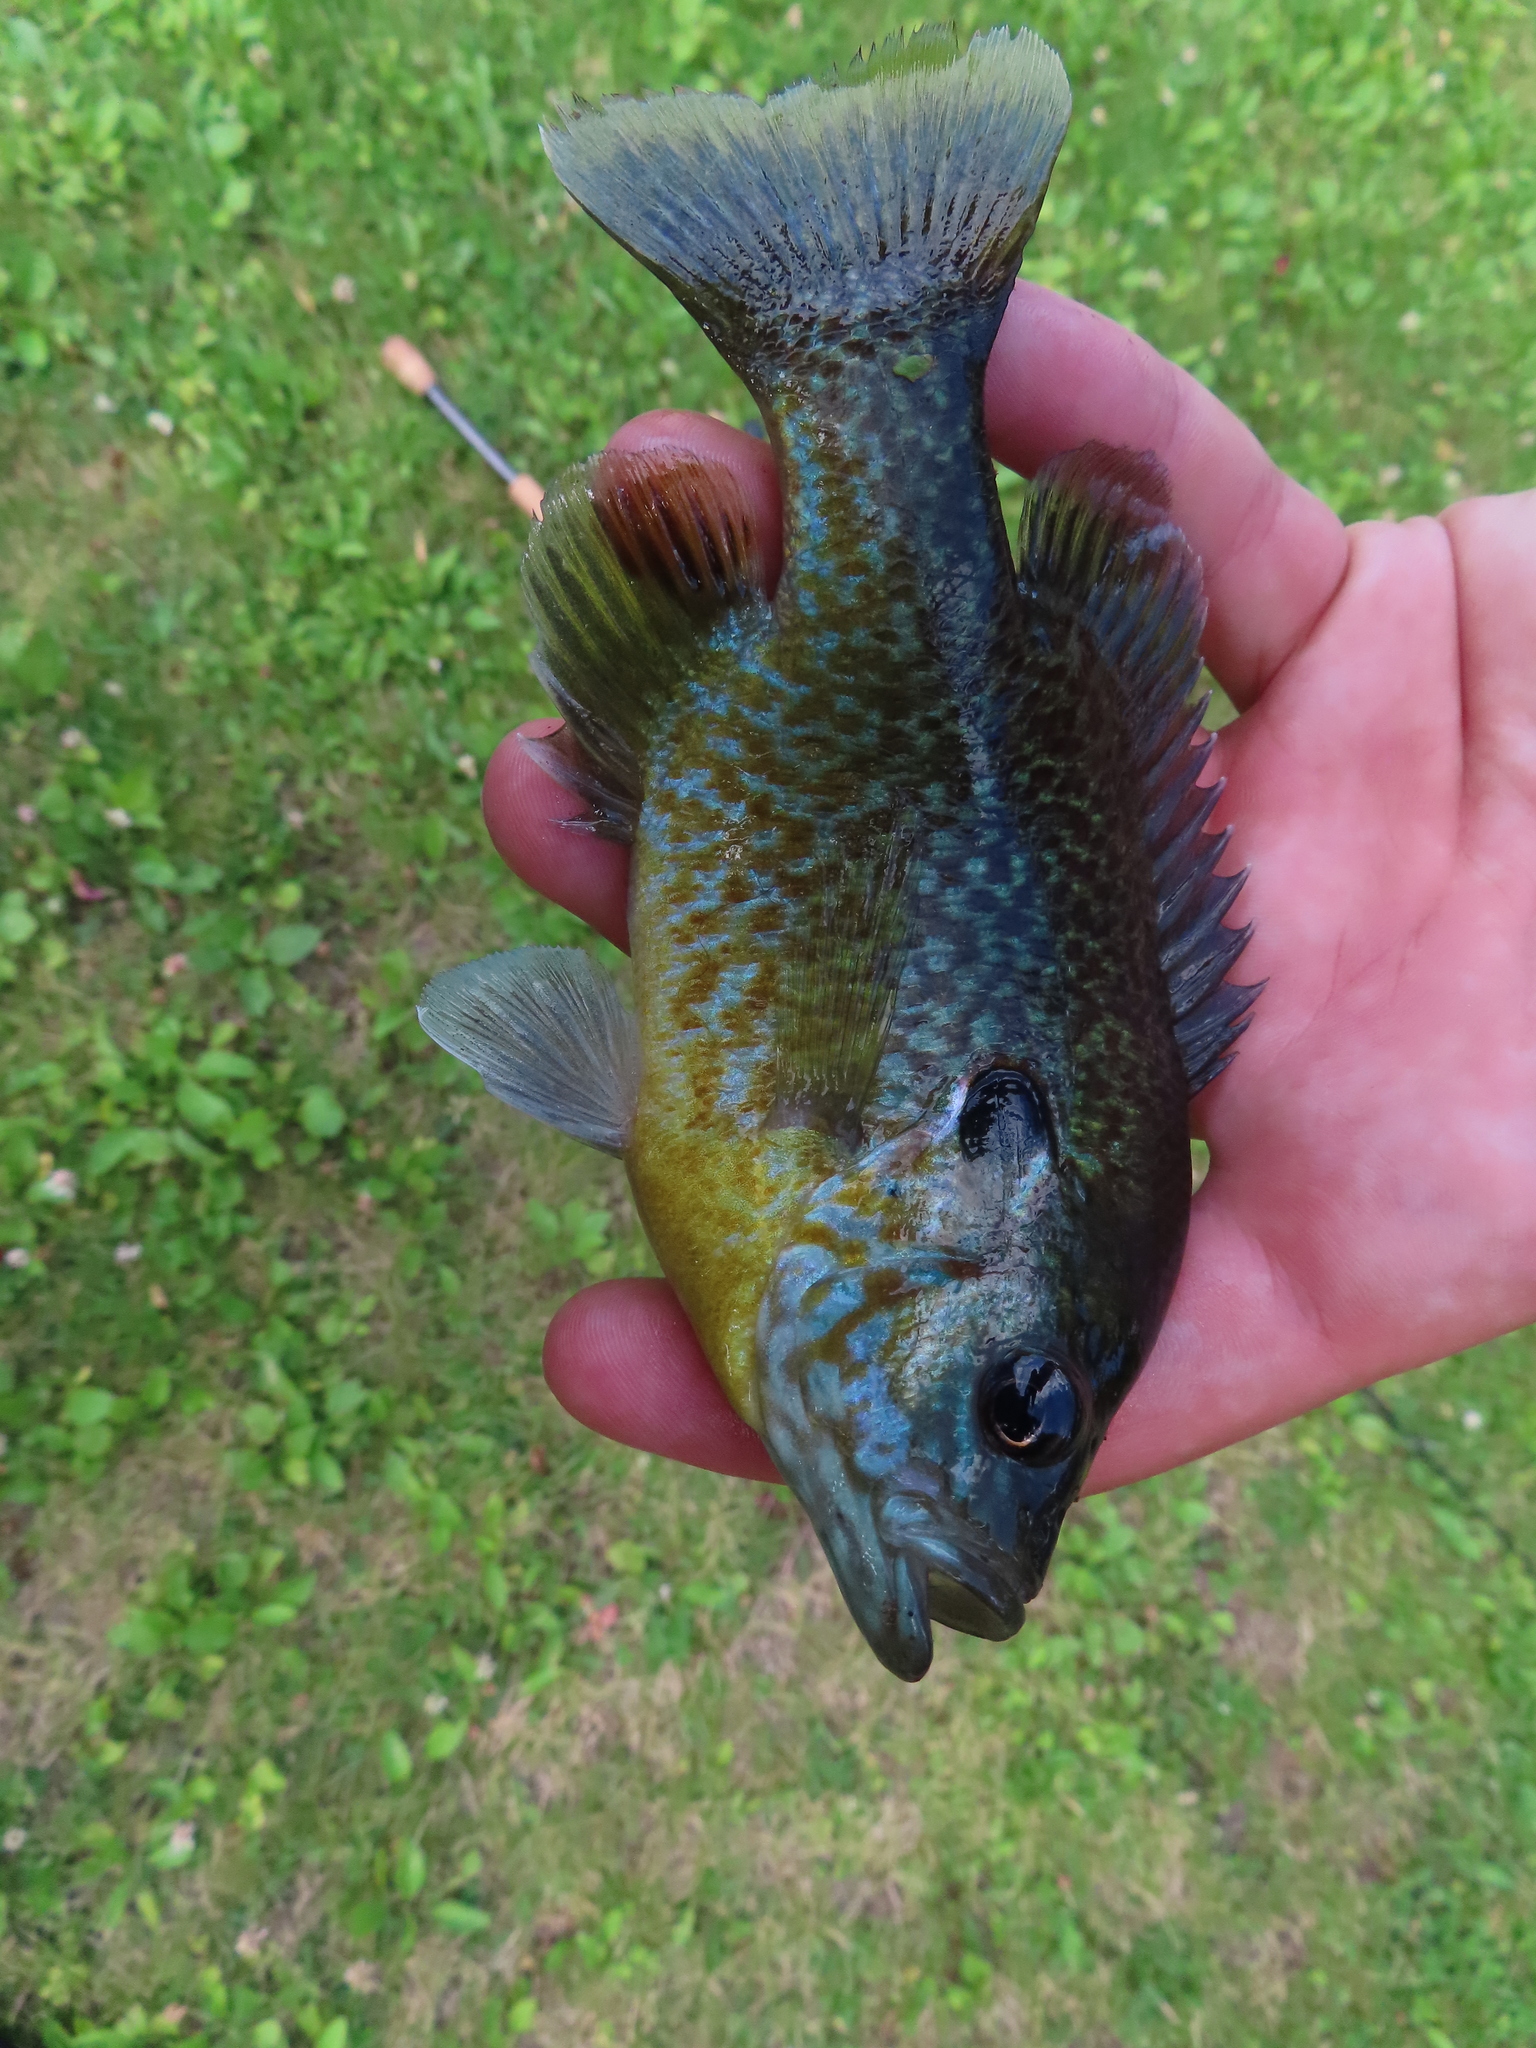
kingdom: Animalia
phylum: Chordata
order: Perciformes
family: Centrarchidae
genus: Lepomis
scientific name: Lepomis
